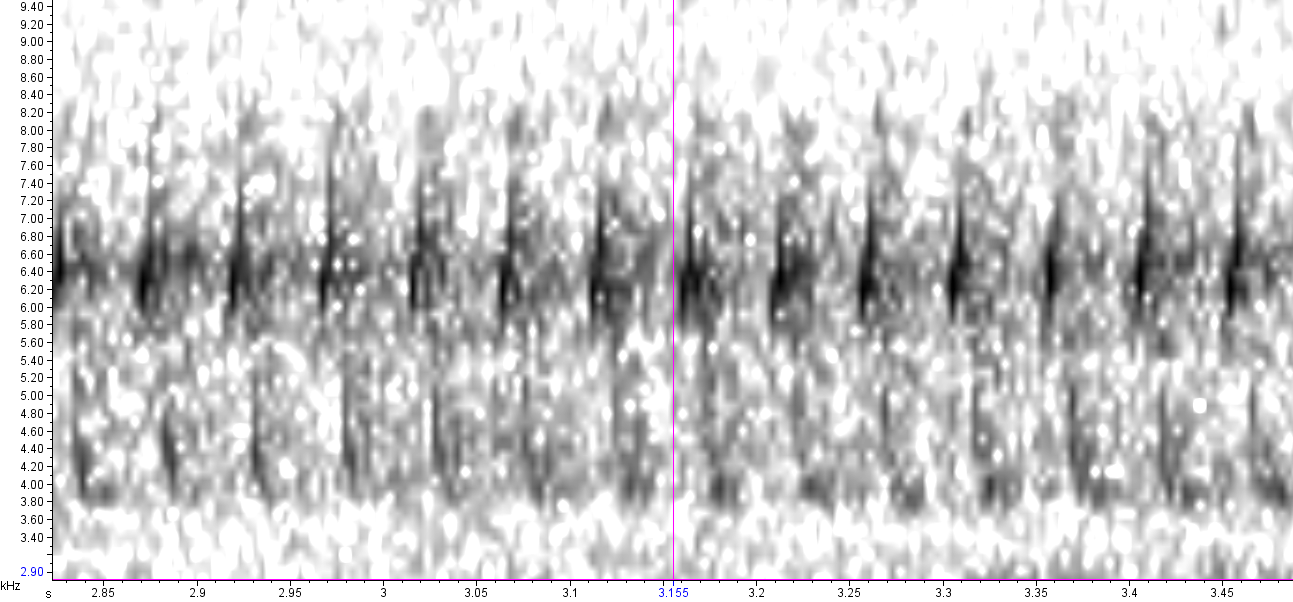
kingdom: Animalia
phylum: Chordata
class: Aves
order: Passeriformes
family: Passerellidae
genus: Spizella
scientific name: Spizella passerina
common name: Chipping sparrow
